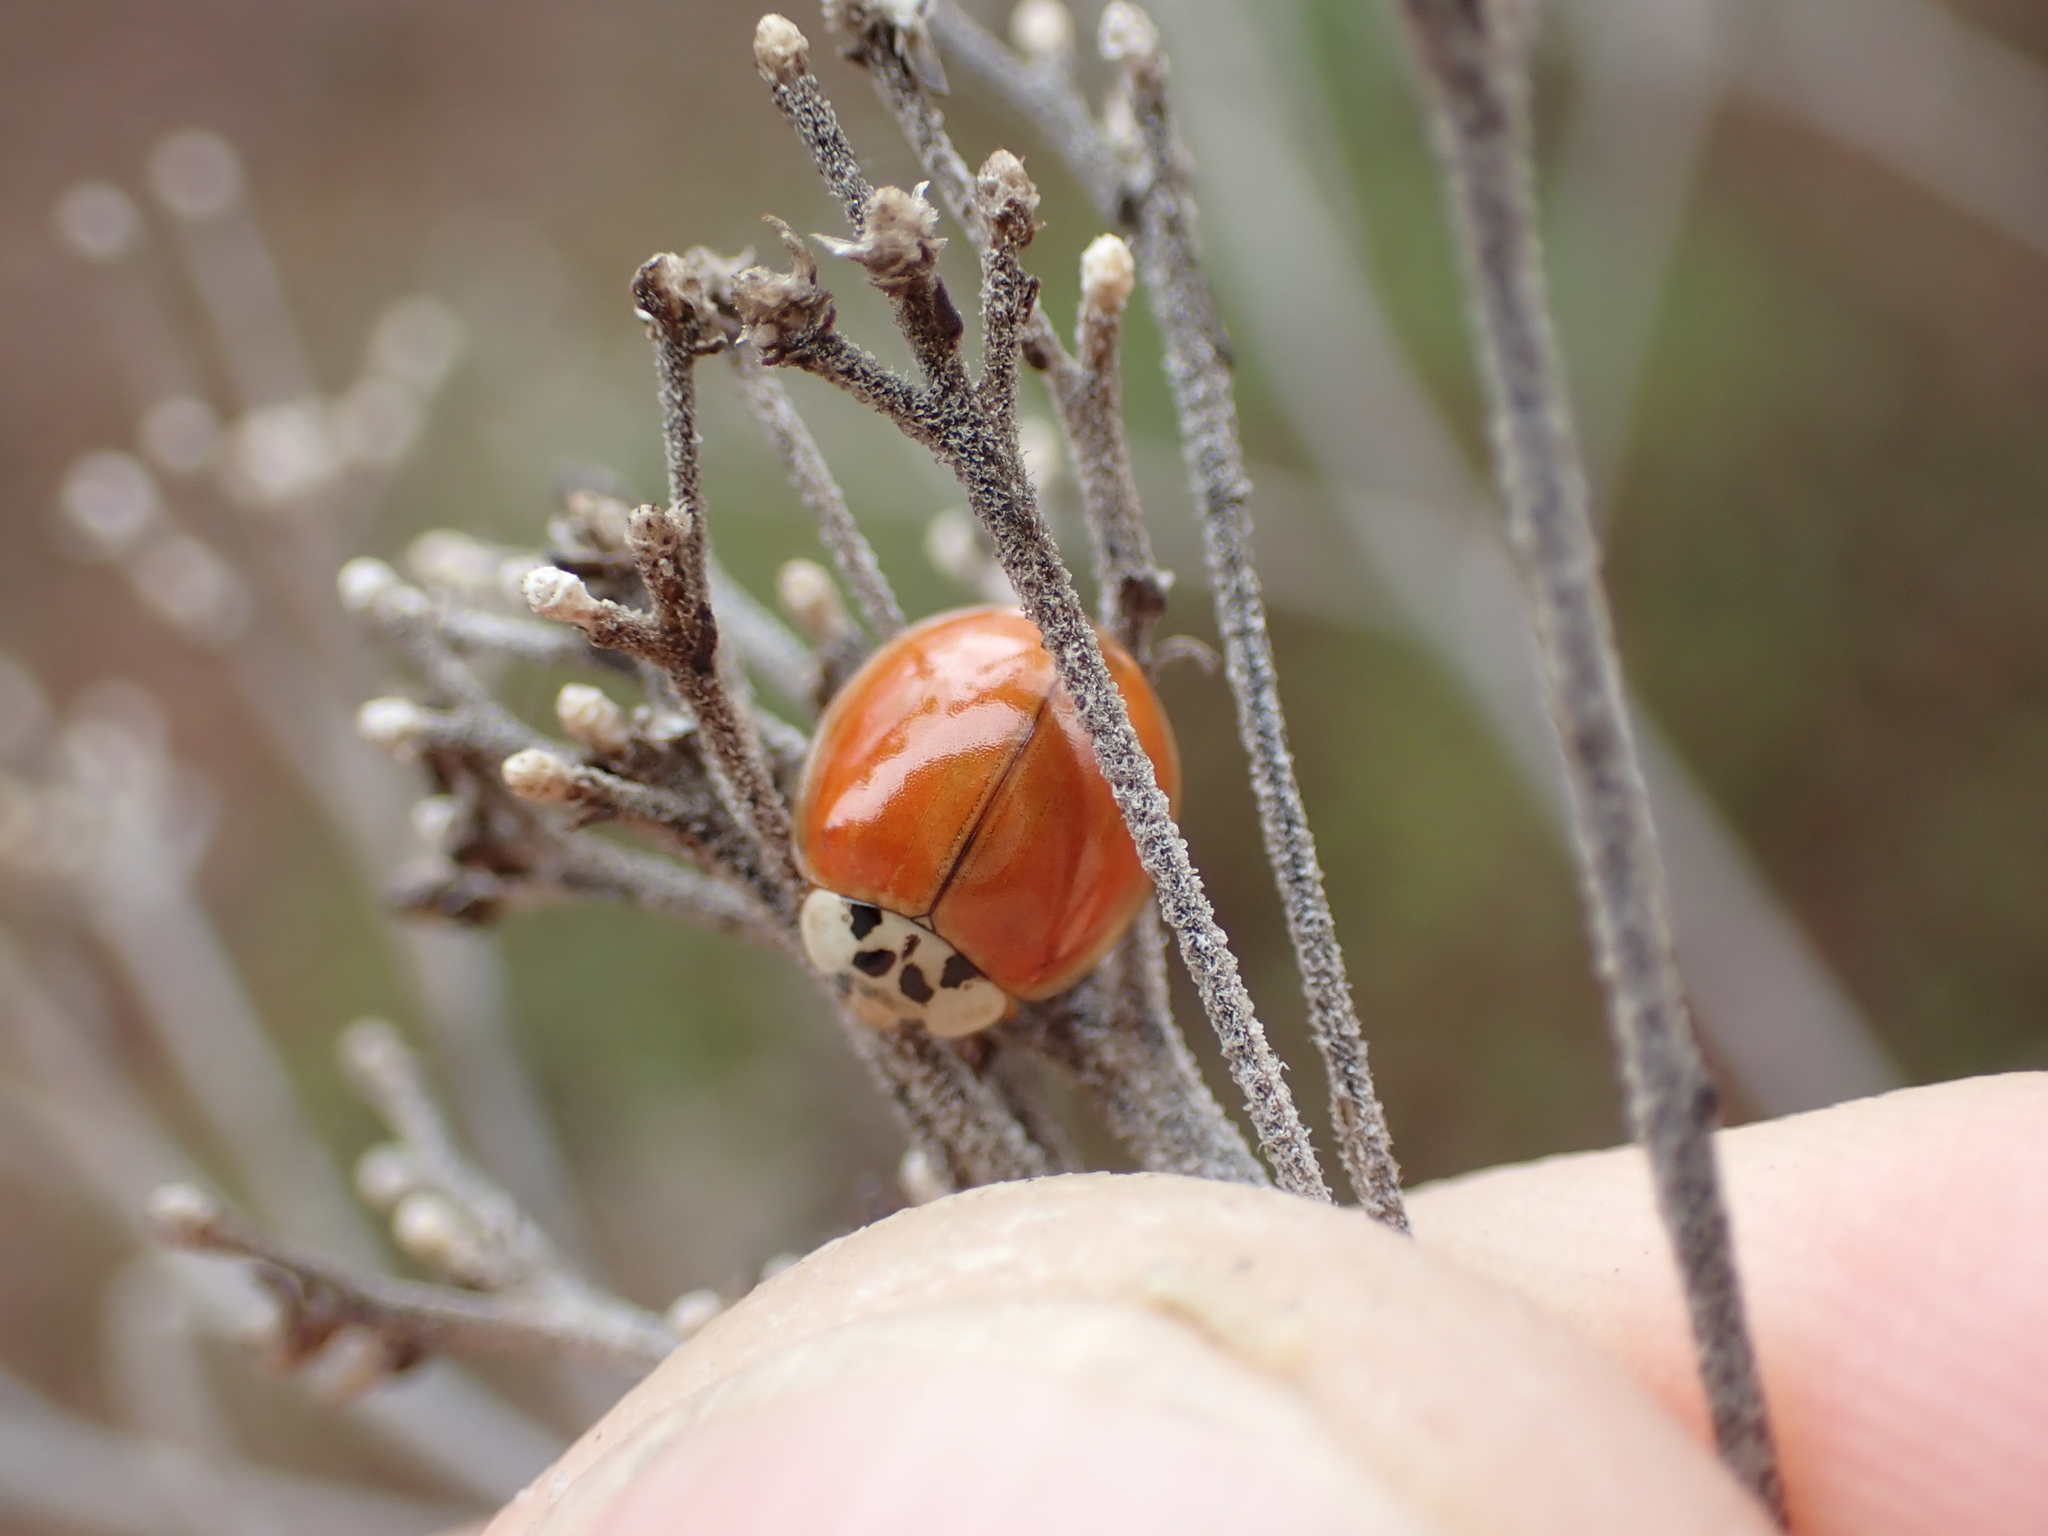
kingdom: Animalia
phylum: Arthropoda
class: Insecta
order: Coleoptera
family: Coccinellidae
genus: Harmonia
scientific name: Harmonia axyridis
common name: Harlequin ladybird
